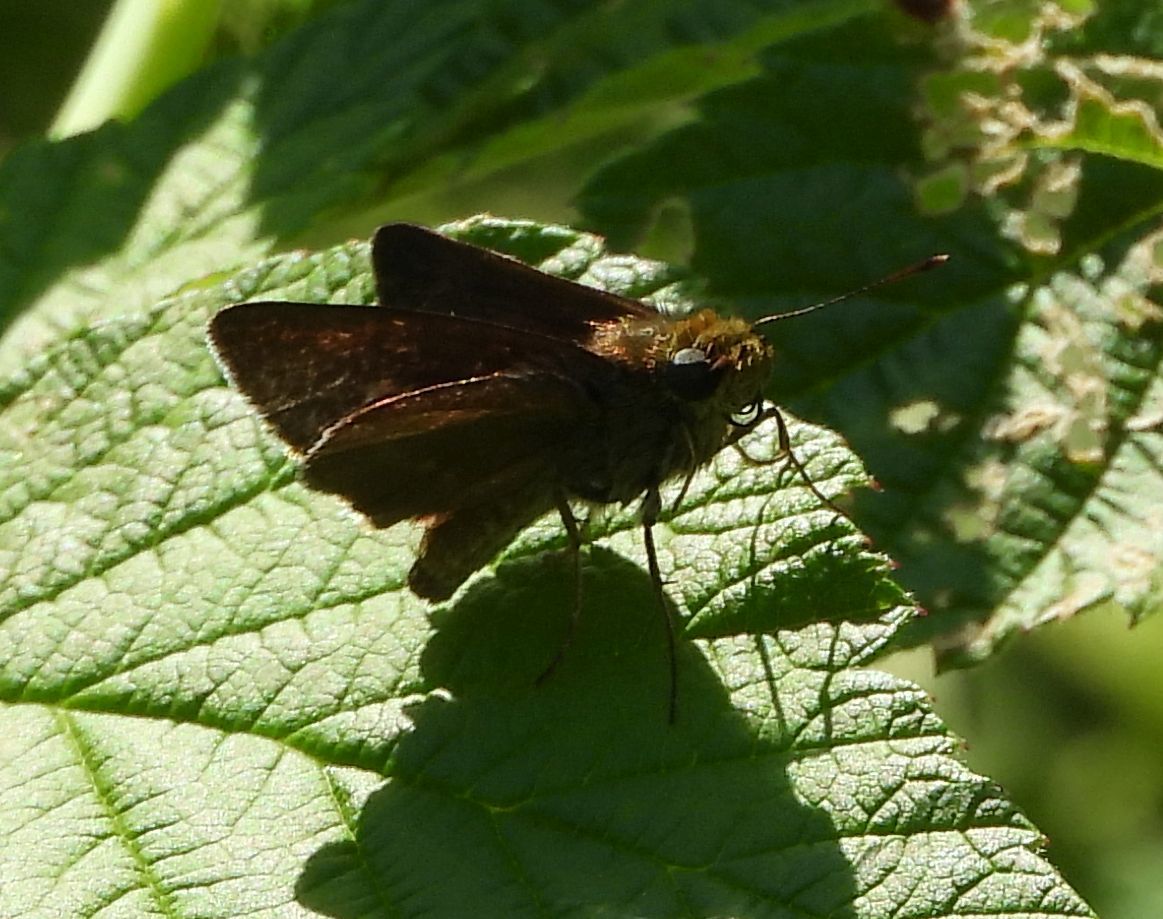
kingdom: Animalia
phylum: Arthropoda
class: Insecta
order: Lepidoptera
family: Hesperiidae
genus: Euphyes
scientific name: Euphyes vestris
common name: Dun skipper
